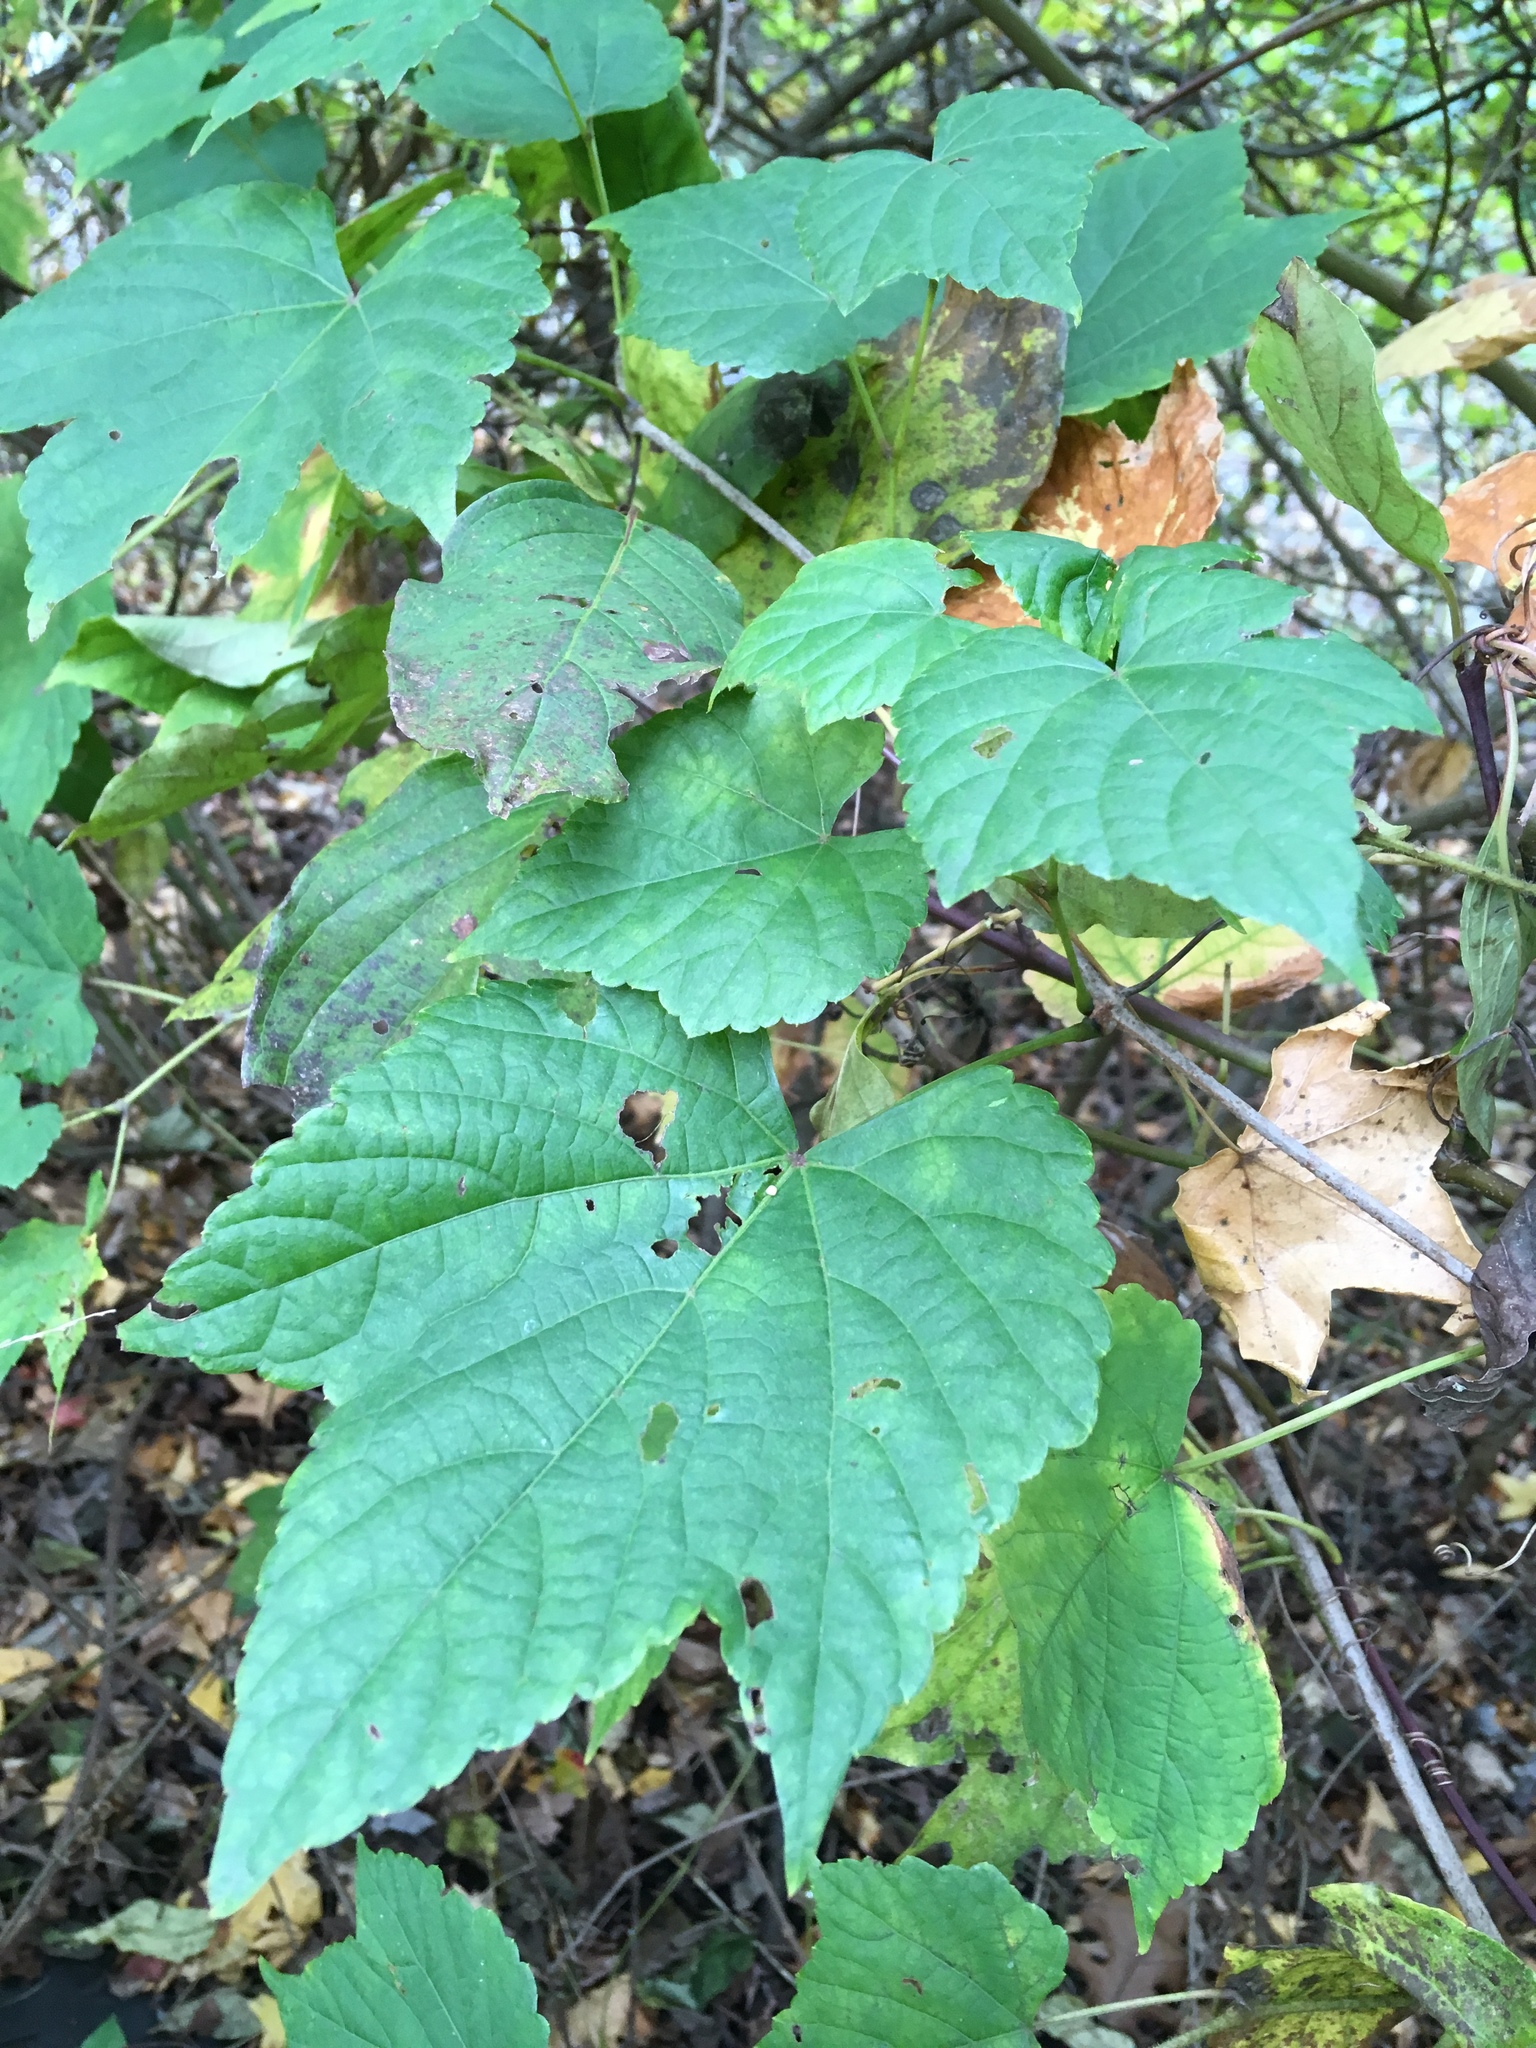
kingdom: Plantae
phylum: Tracheophyta
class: Magnoliopsida
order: Vitales
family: Vitaceae
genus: Ampelopsis
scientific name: Ampelopsis glandulosa
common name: Amur peppervine
